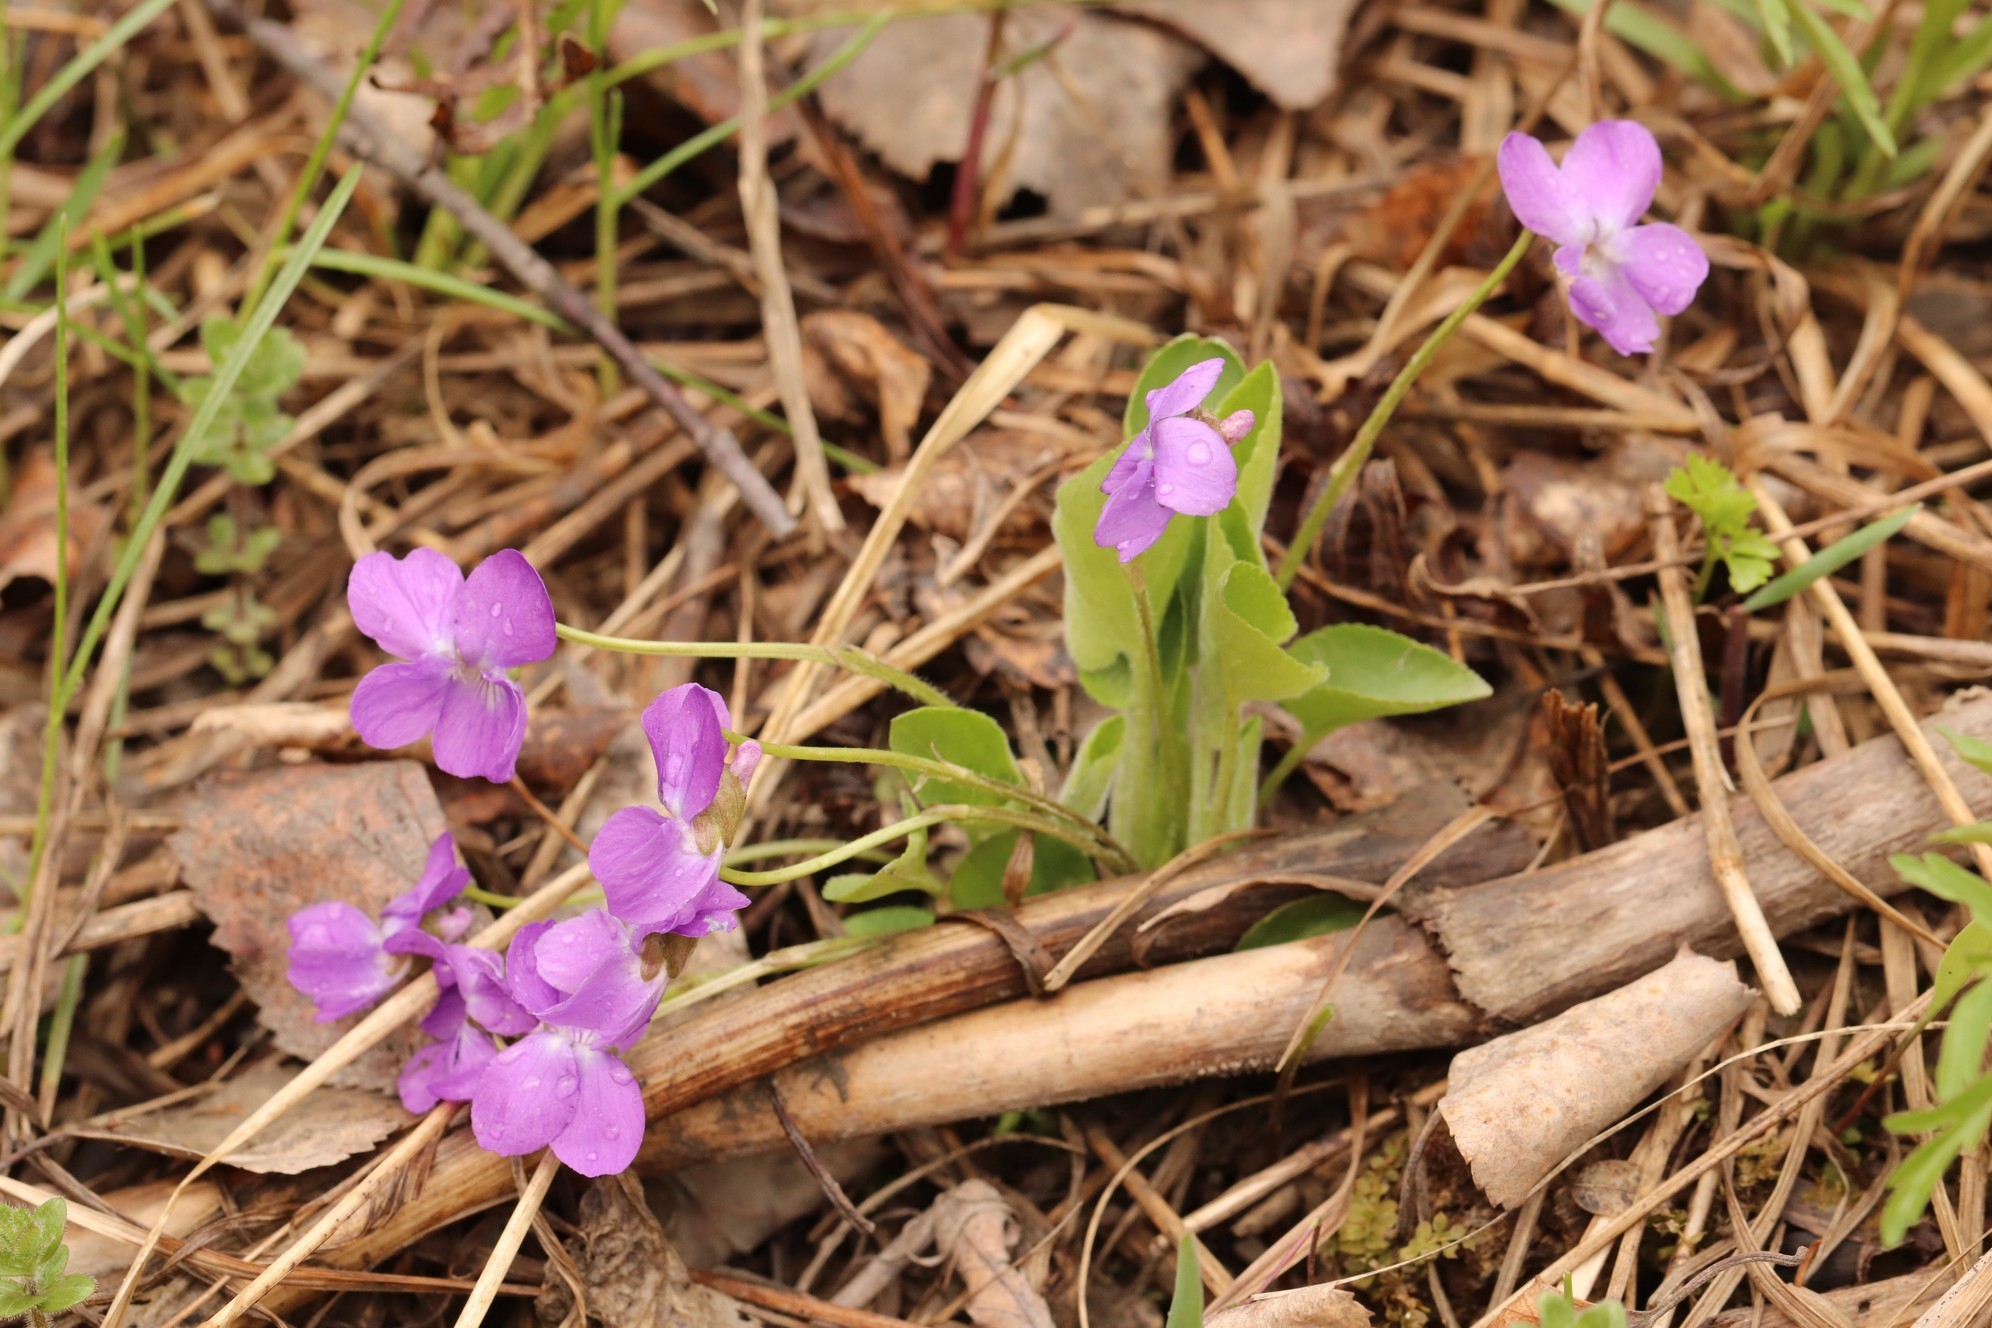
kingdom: Plantae
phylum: Tracheophyta
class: Magnoliopsida
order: Malpighiales
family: Violaceae
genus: Viola
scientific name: Viola hirta
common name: Hairy violet
